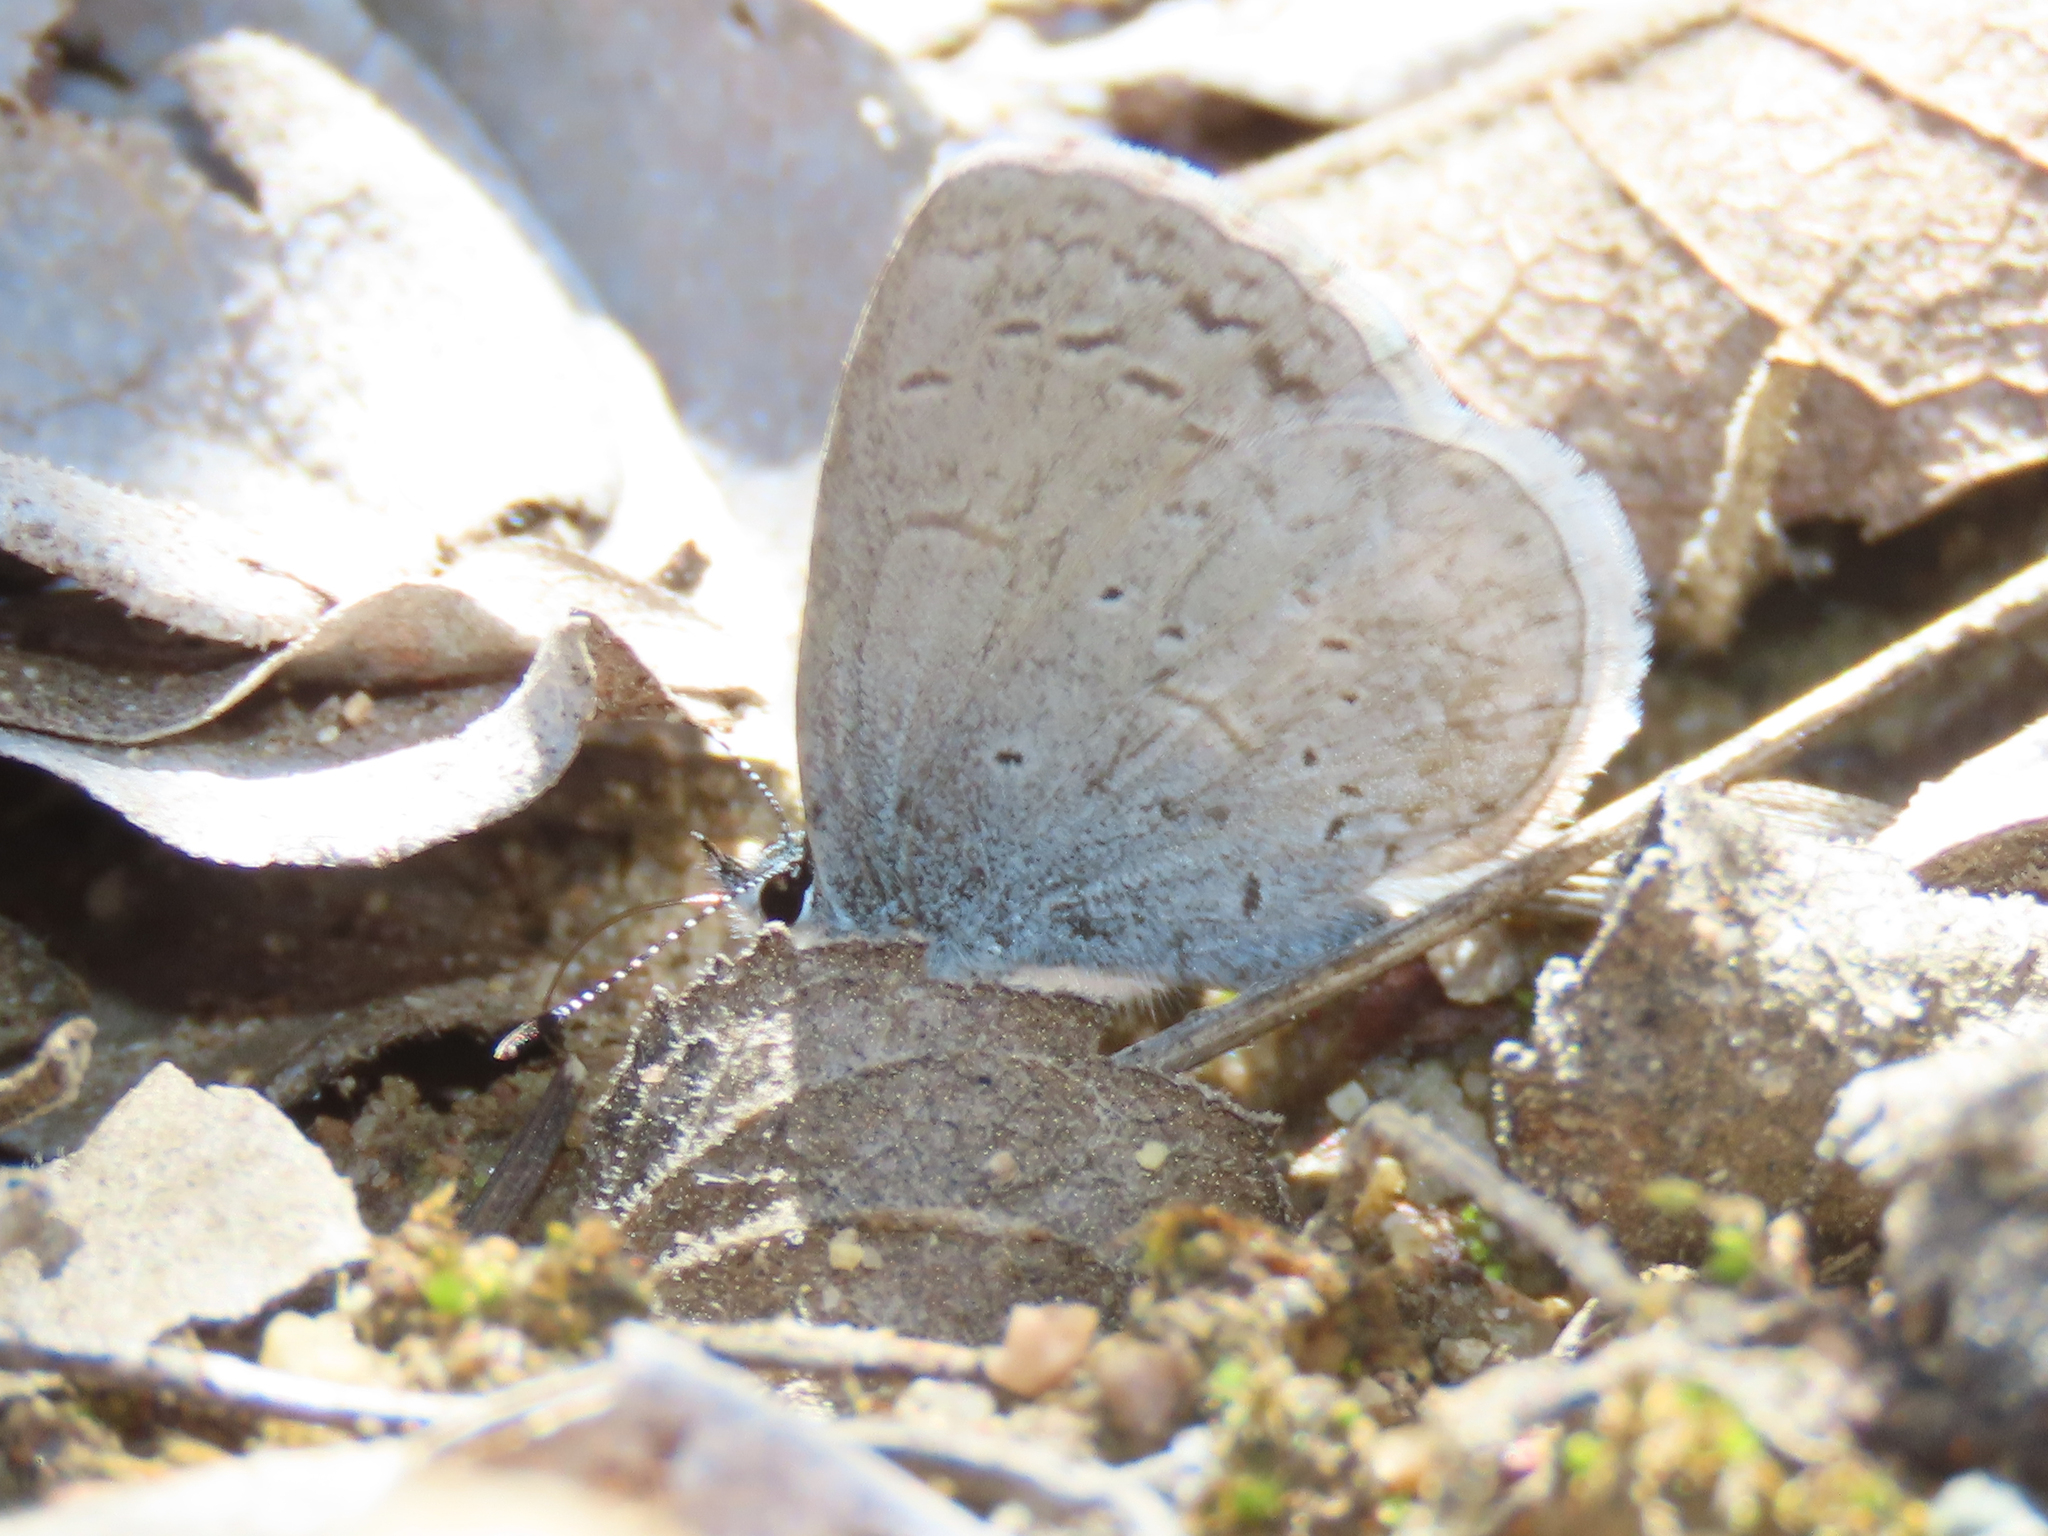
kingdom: Animalia
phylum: Arthropoda
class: Insecta
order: Lepidoptera
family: Lycaenidae
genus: Celastrina
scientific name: Celastrina ladon
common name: Spring azure
